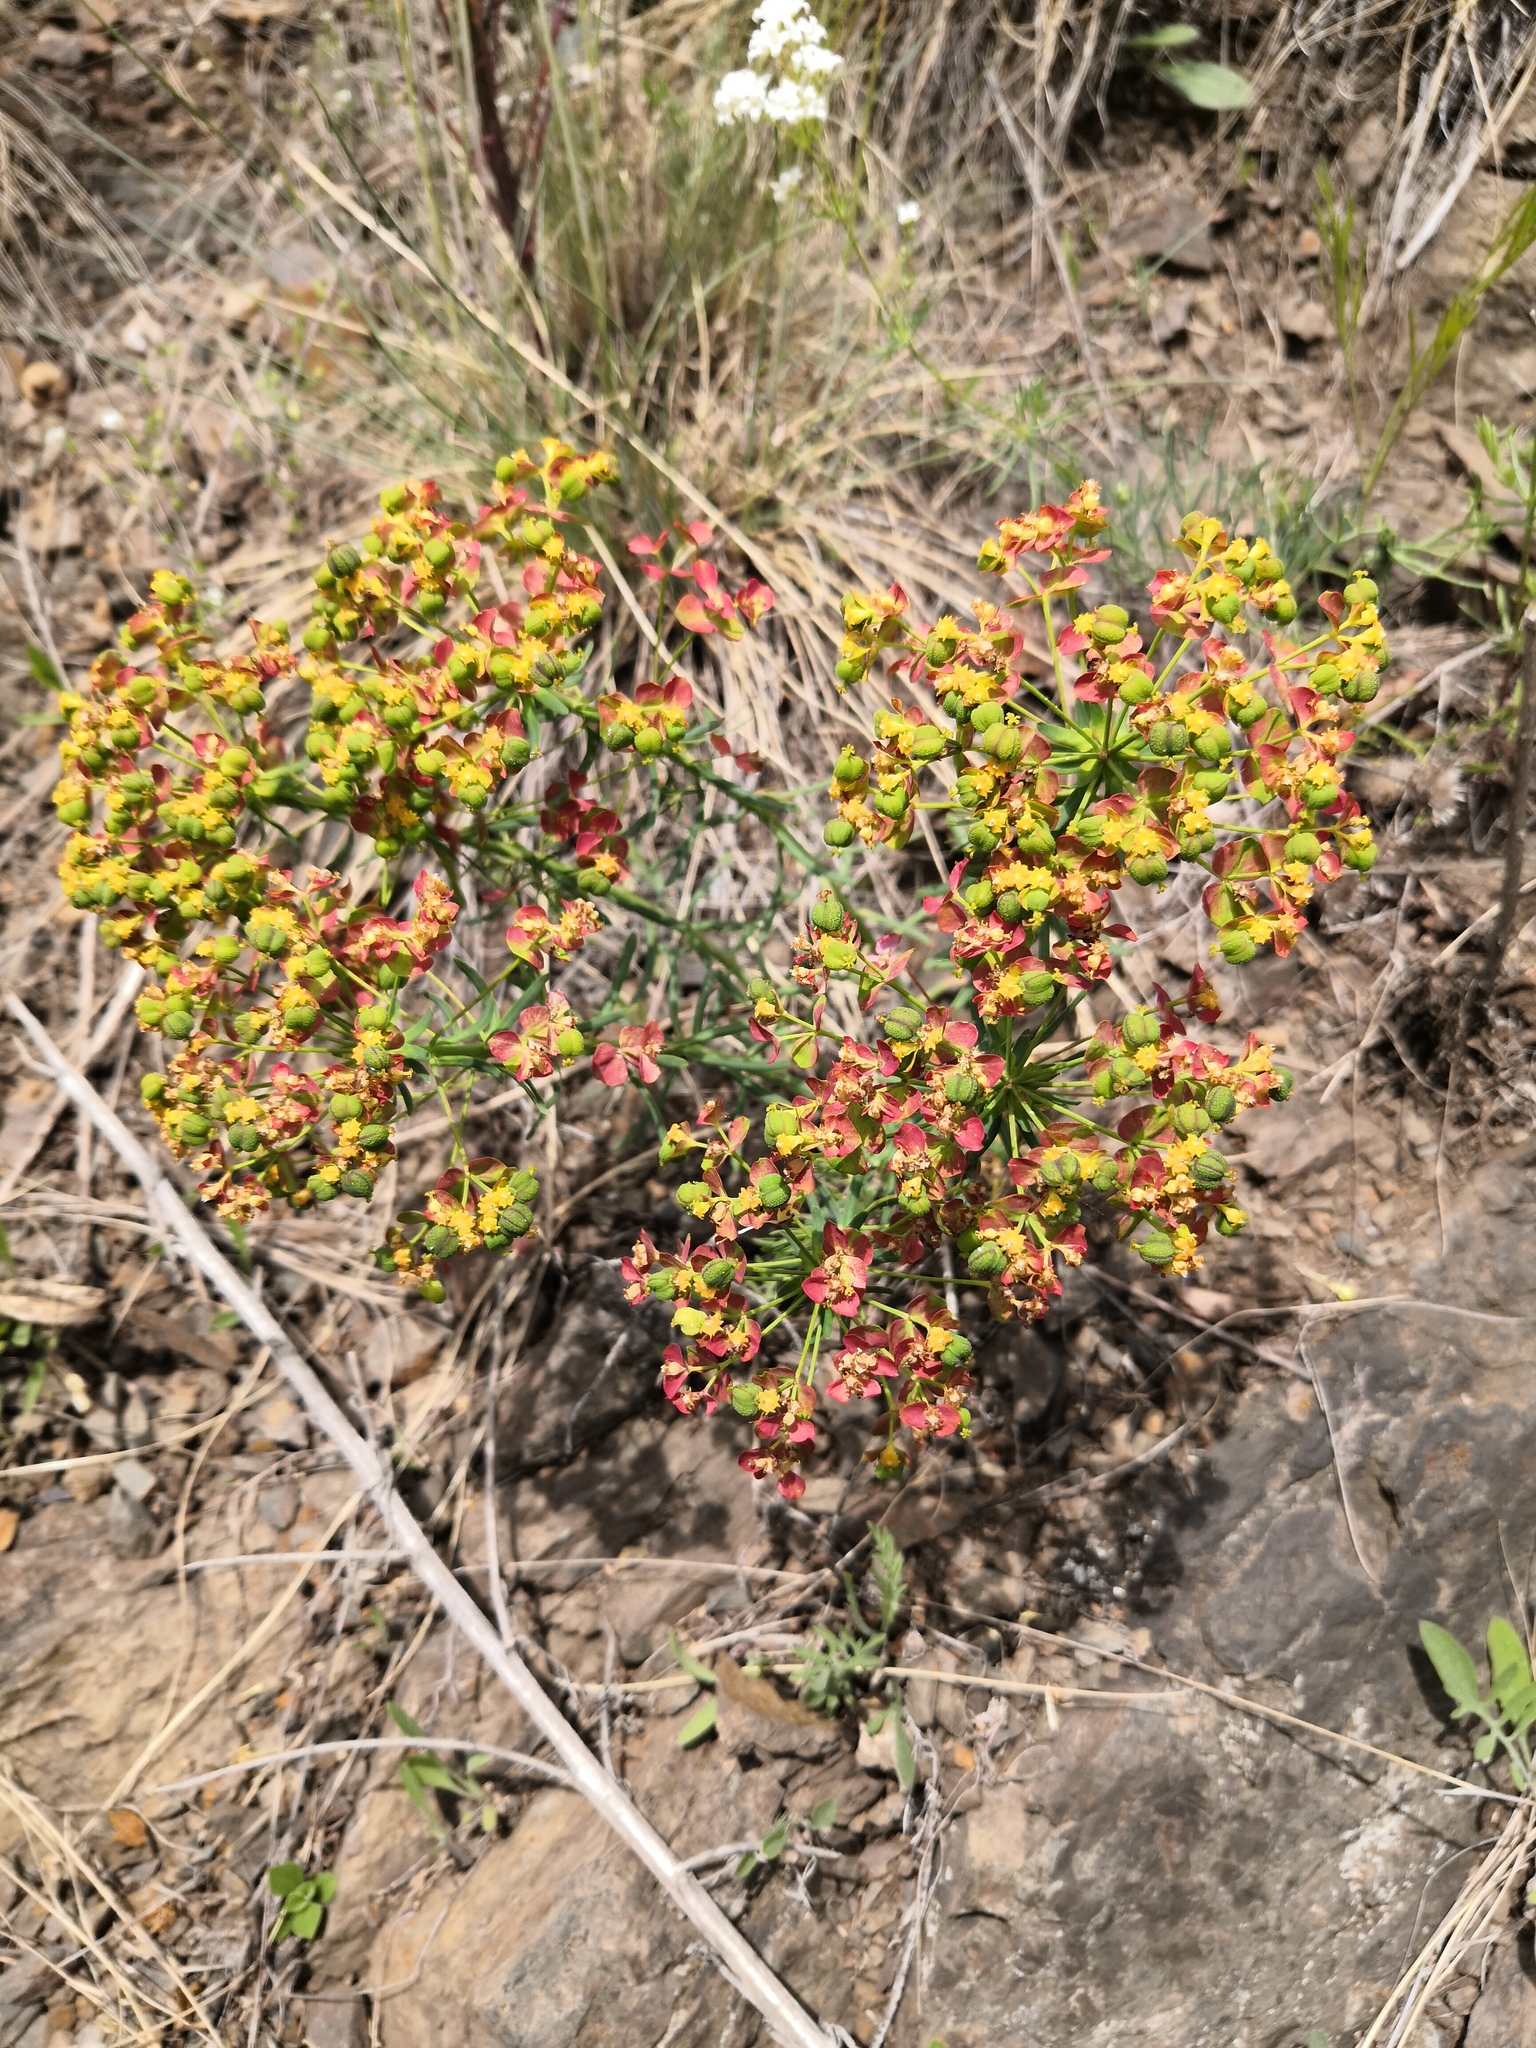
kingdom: Plantae
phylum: Tracheophyta
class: Magnoliopsida
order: Malpighiales
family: Euphorbiaceae
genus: Euphorbia
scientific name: Euphorbia cyparissias
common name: Cypress spurge
